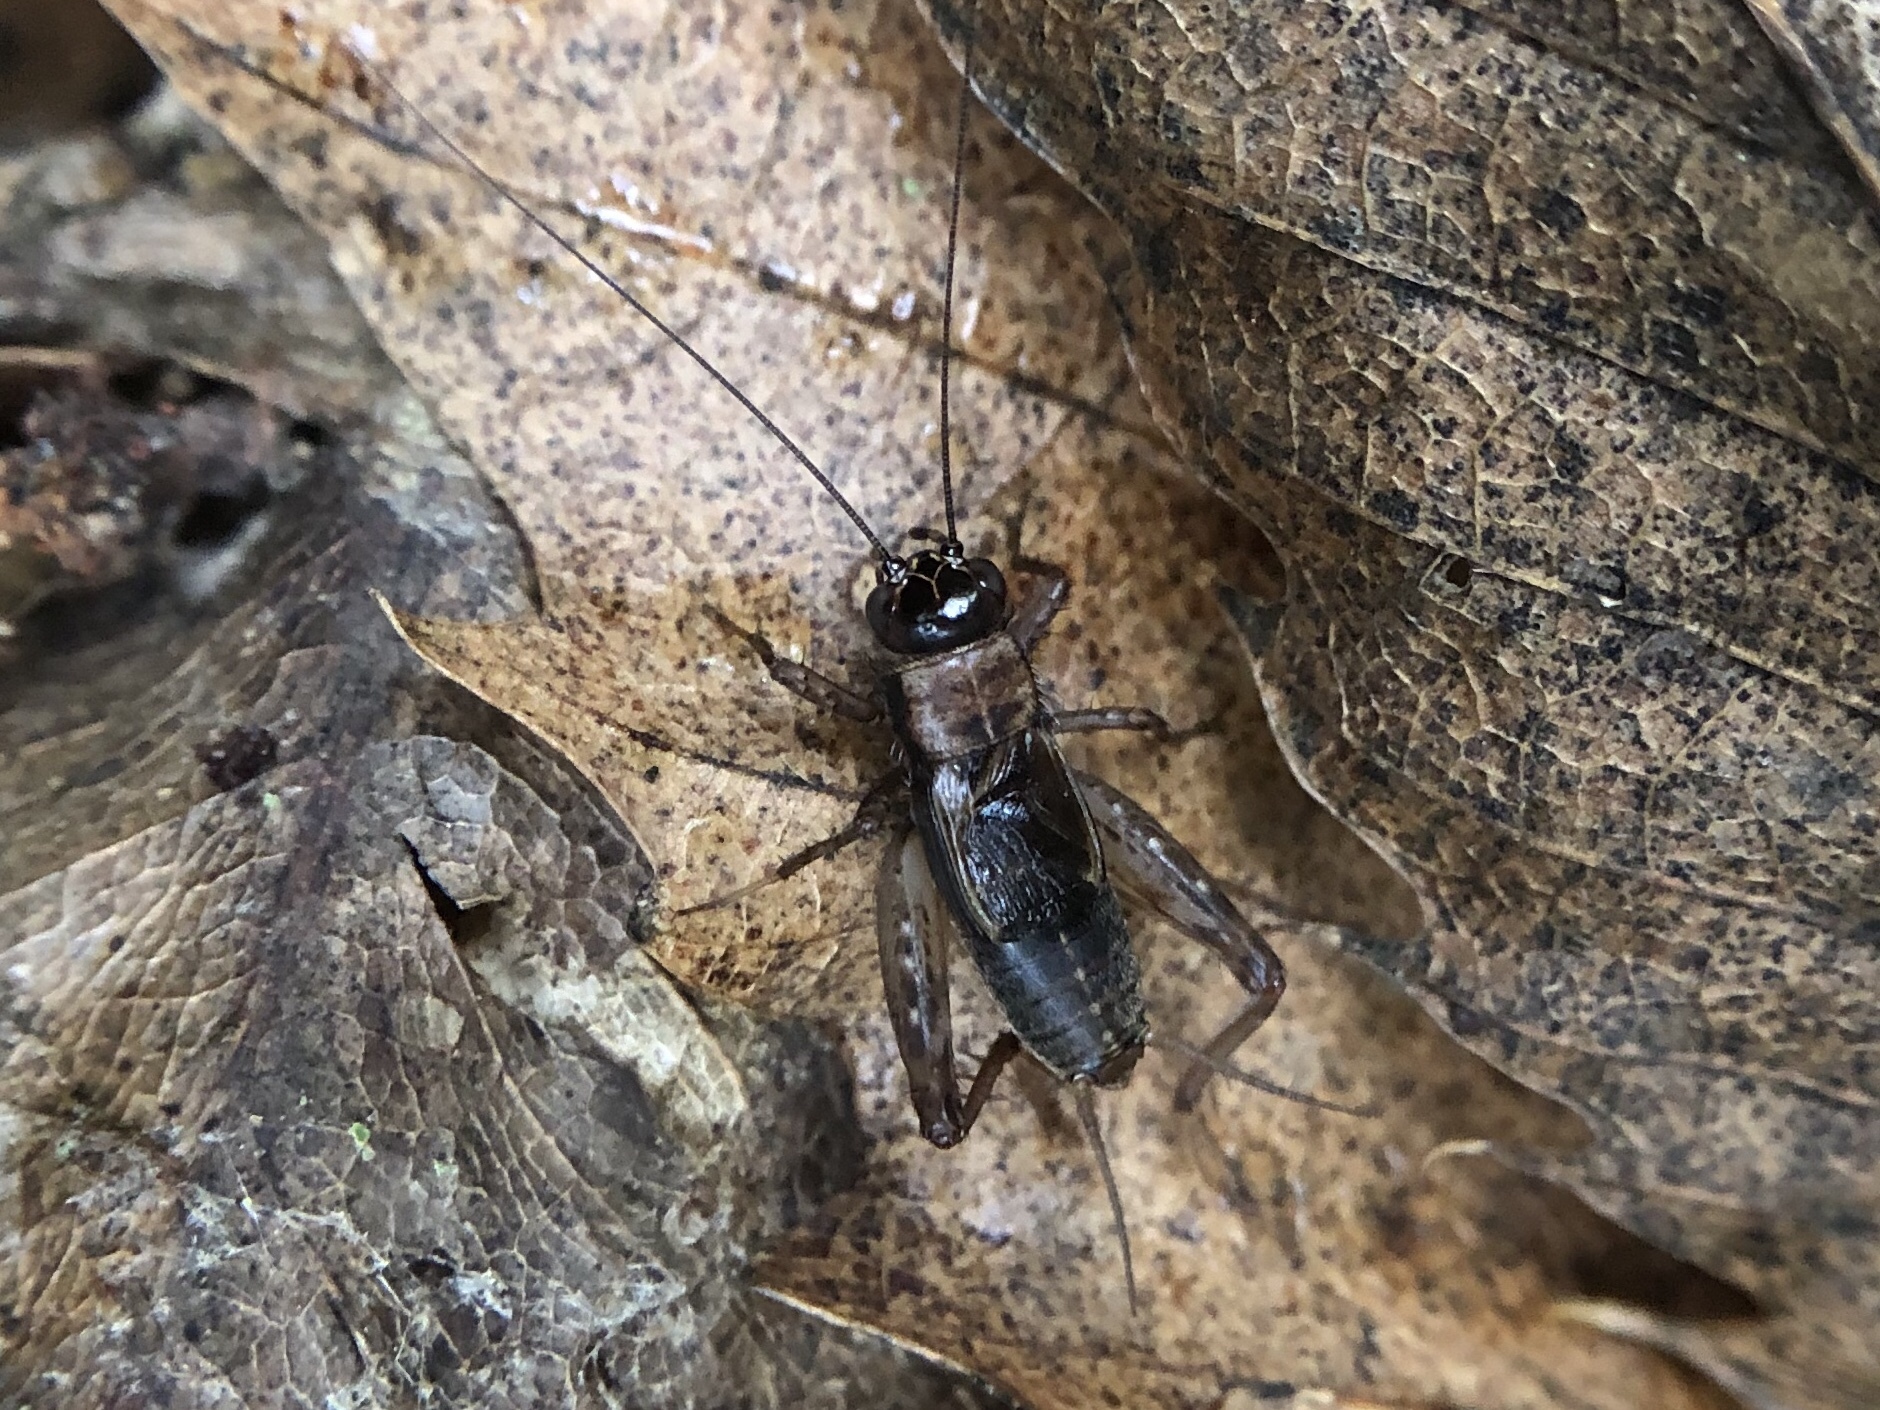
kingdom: Animalia
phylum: Arthropoda
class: Insecta
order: Orthoptera
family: Trigonidiidae
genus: Nemobius
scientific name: Nemobius sylvestris
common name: Wood-cricket
